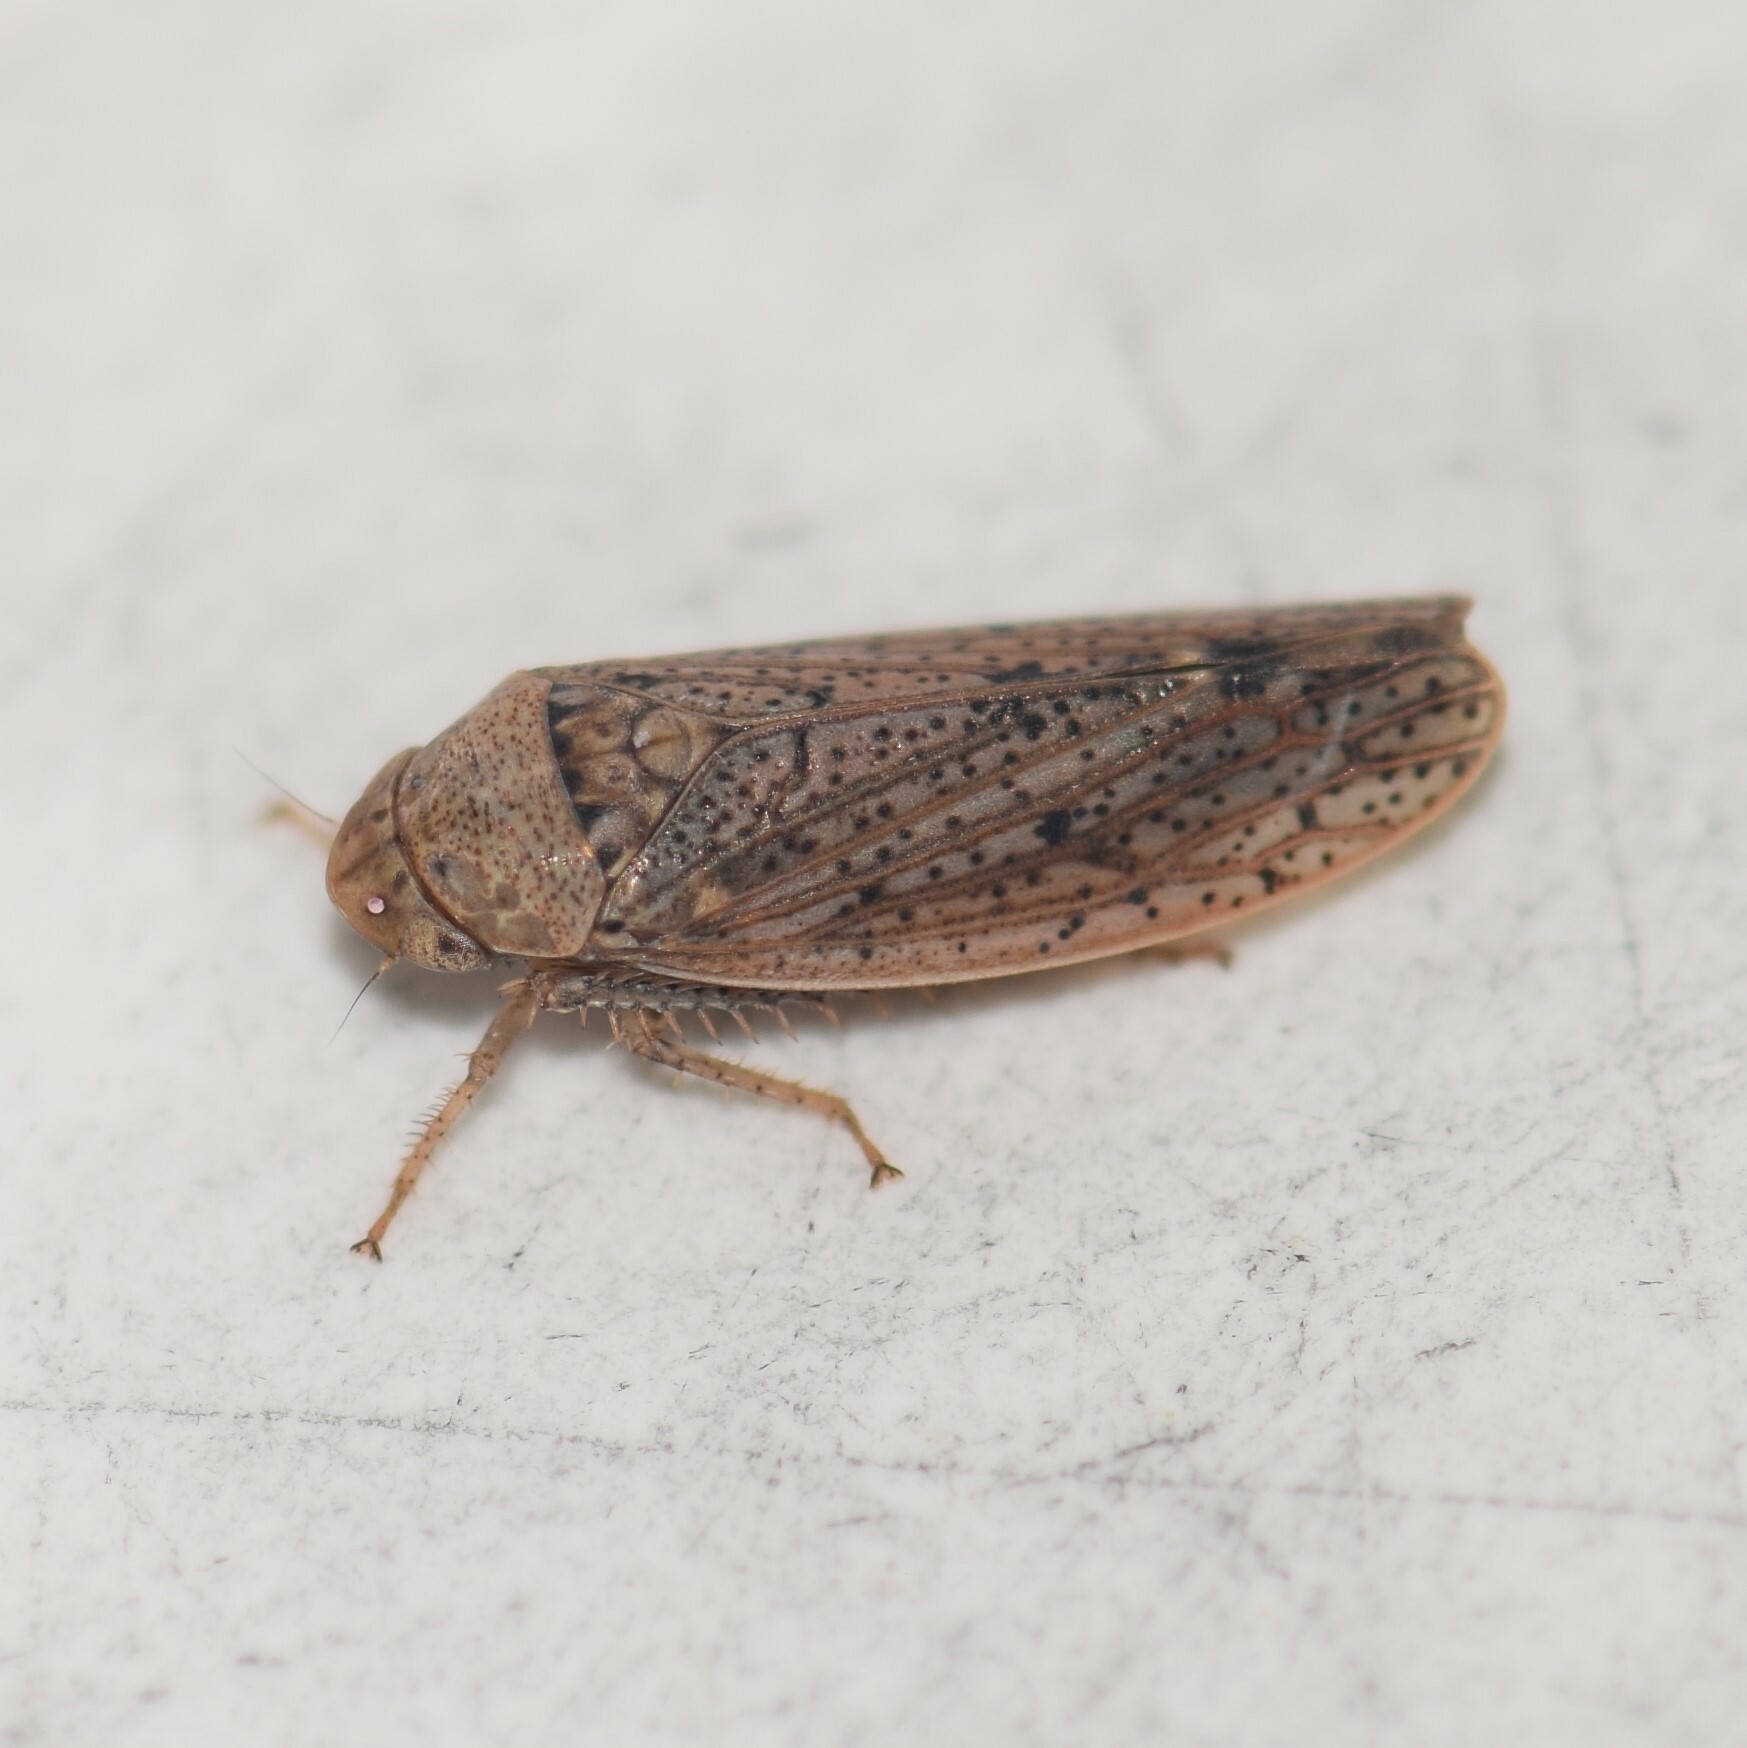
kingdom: Animalia
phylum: Arthropoda
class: Insecta
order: Hemiptera
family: Cicadellidae
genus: Ponana
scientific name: Ponana puncticollis
